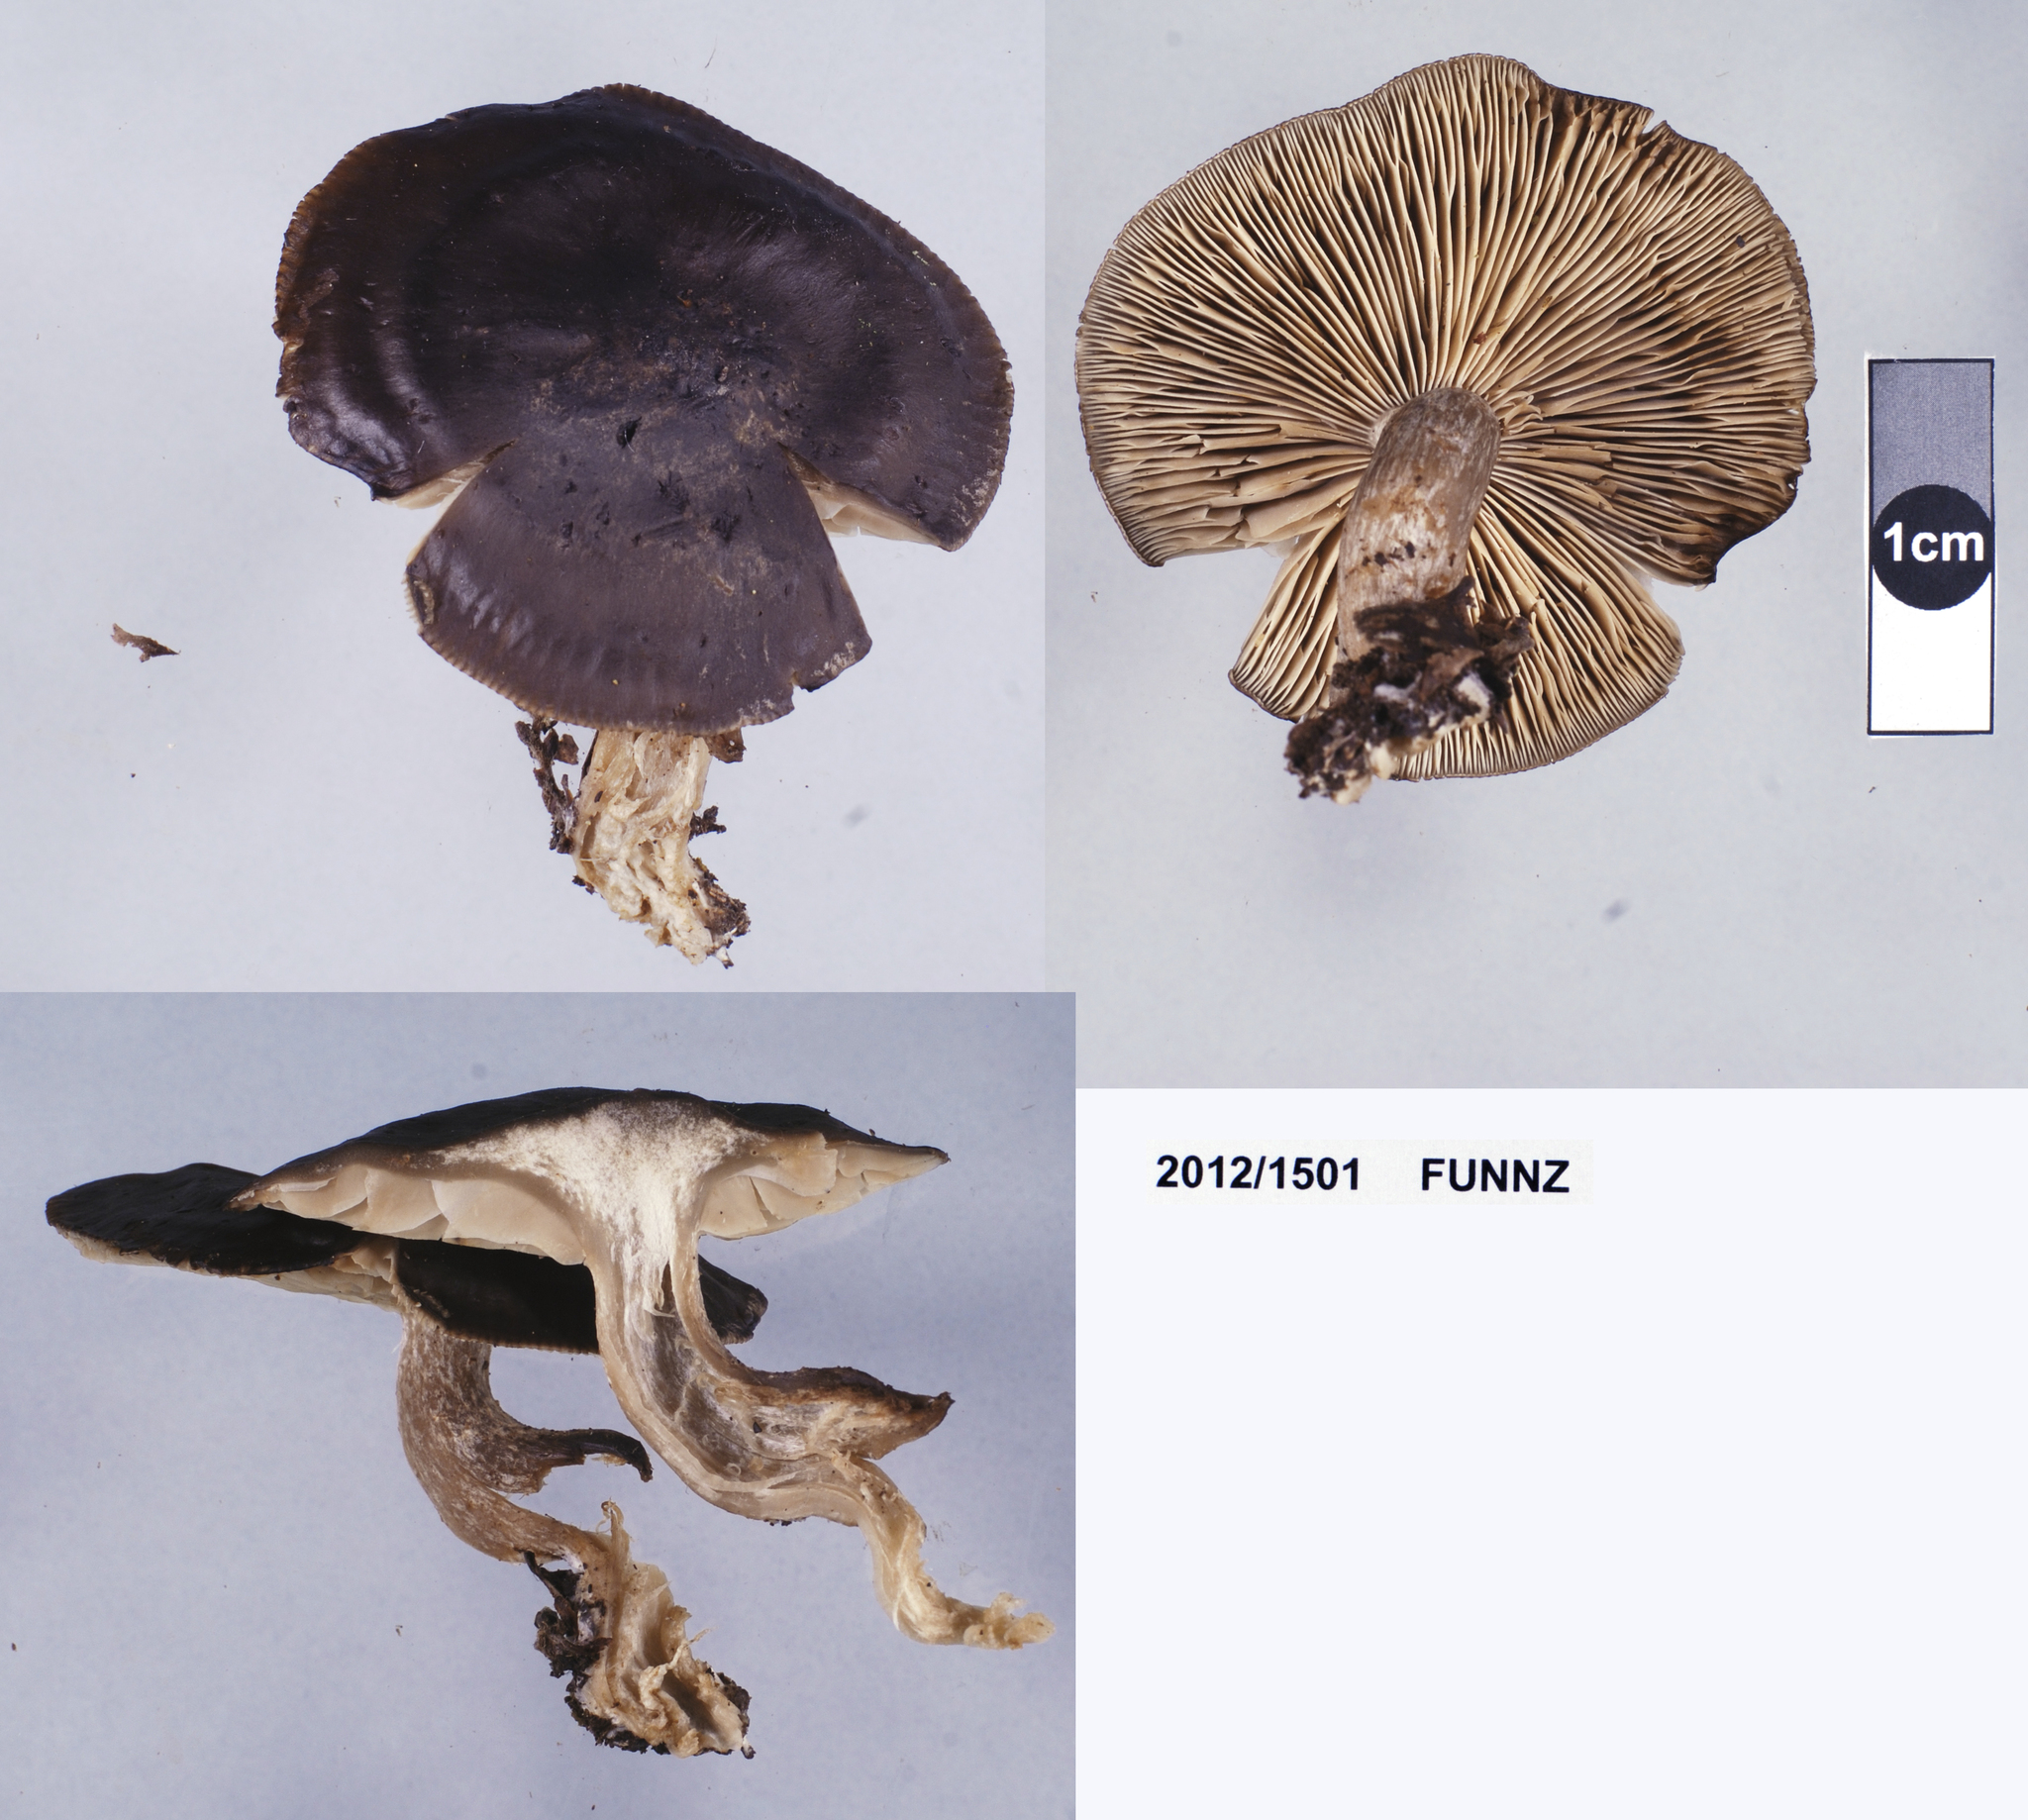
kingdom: Fungi
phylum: Basidiomycota
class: Agaricomycetes
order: Agaricales
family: Lyophyllaceae
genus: Lyophyllum
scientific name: Lyophyllum
